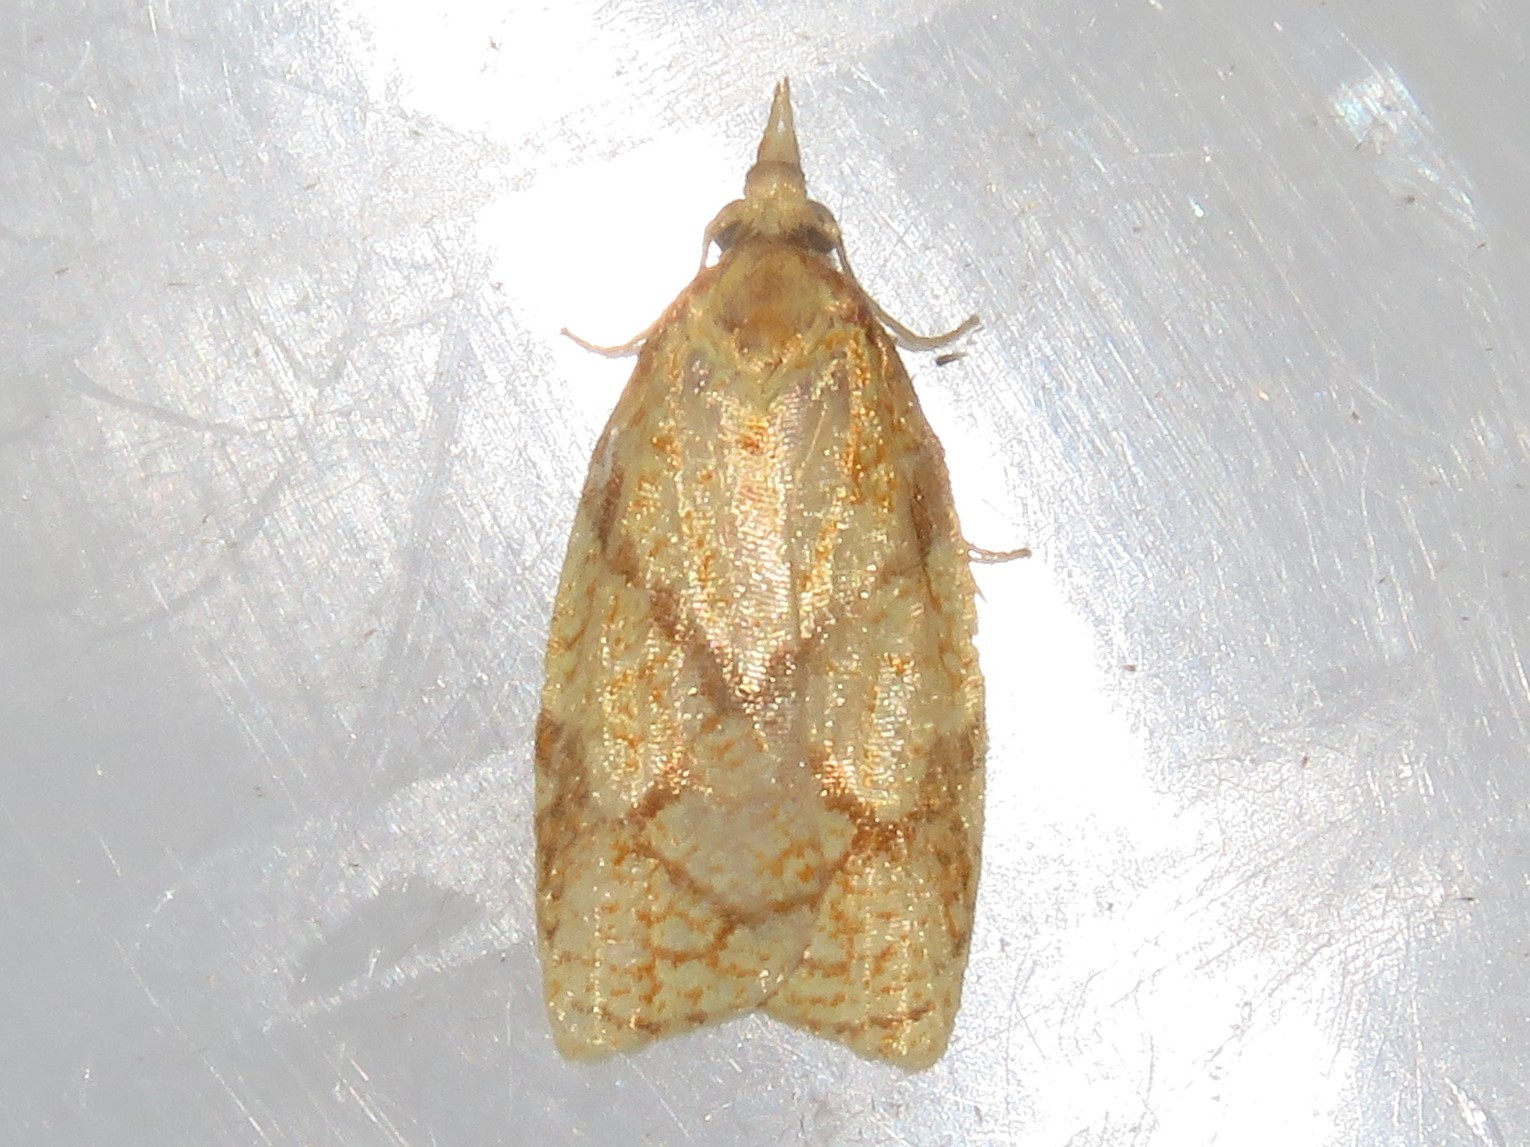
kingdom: Animalia
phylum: Arthropoda
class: Insecta
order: Lepidoptera
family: Tortricidae
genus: Cenopis
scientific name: Cenopis reticulatana
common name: Reticulated fruitworm moth
